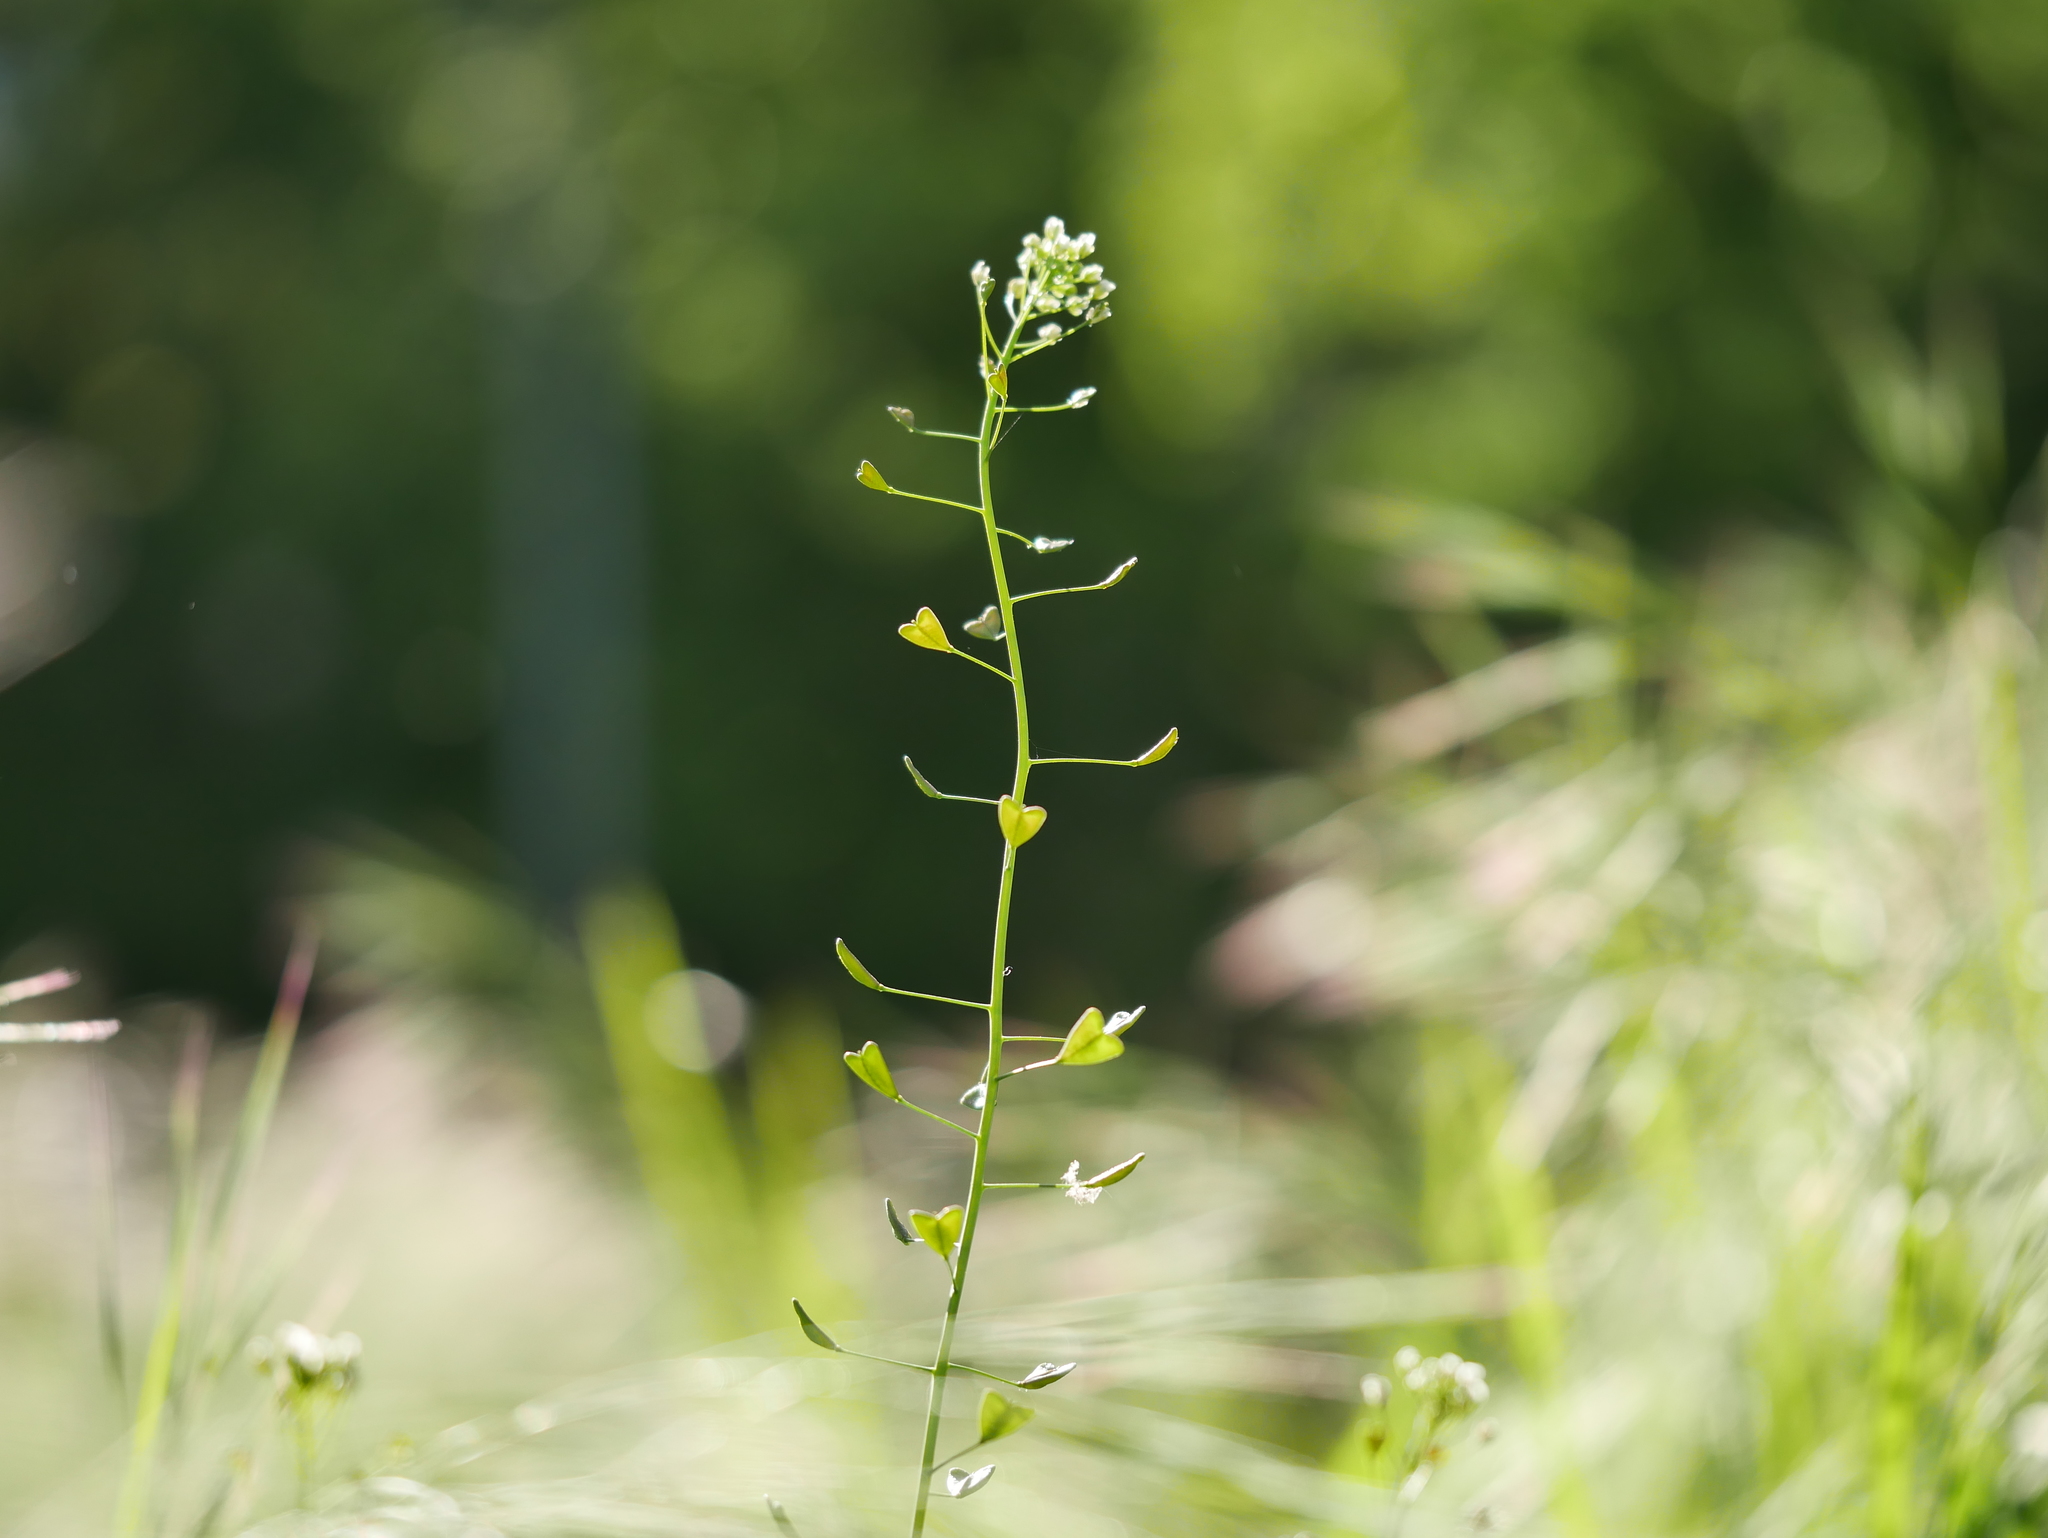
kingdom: Plantae
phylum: Tracheophyta
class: Magnoliopsida
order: Brassicales
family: Brassicaceae
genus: Capsella
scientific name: Capsella bursa-pastoris
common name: Shepherd's purse
